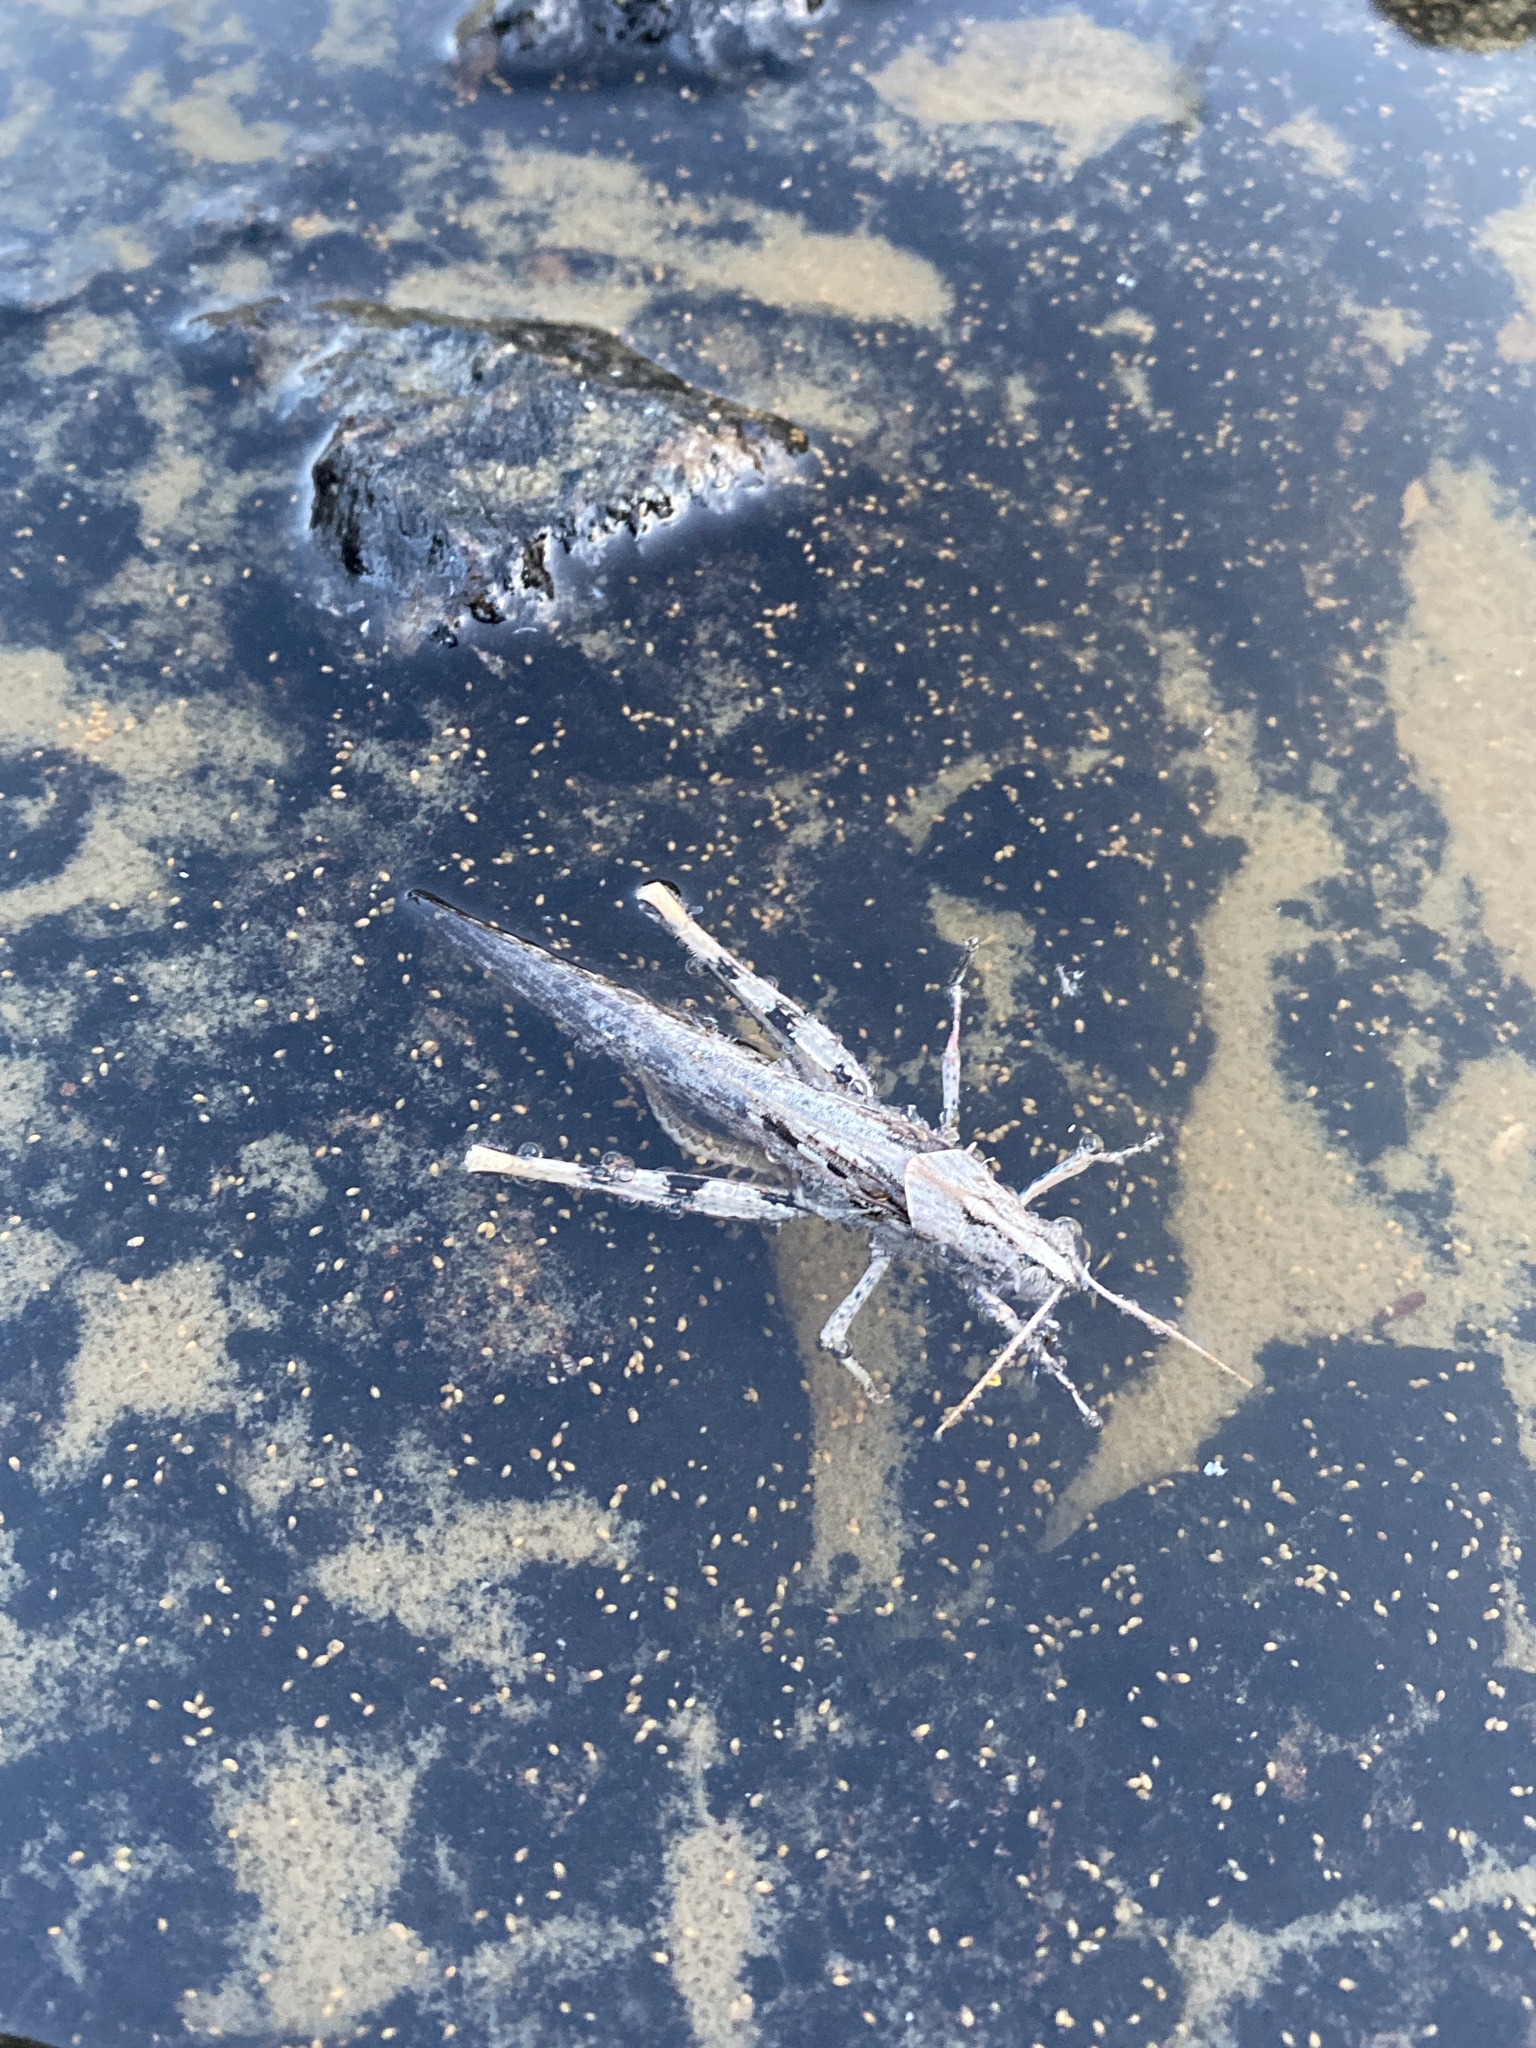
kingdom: Animalia
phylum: Arthropoda
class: Insecta
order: Orthoptera
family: Acrididae
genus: Schistocerca
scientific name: Schistocerca nitens
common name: Vagrant grasshopper
